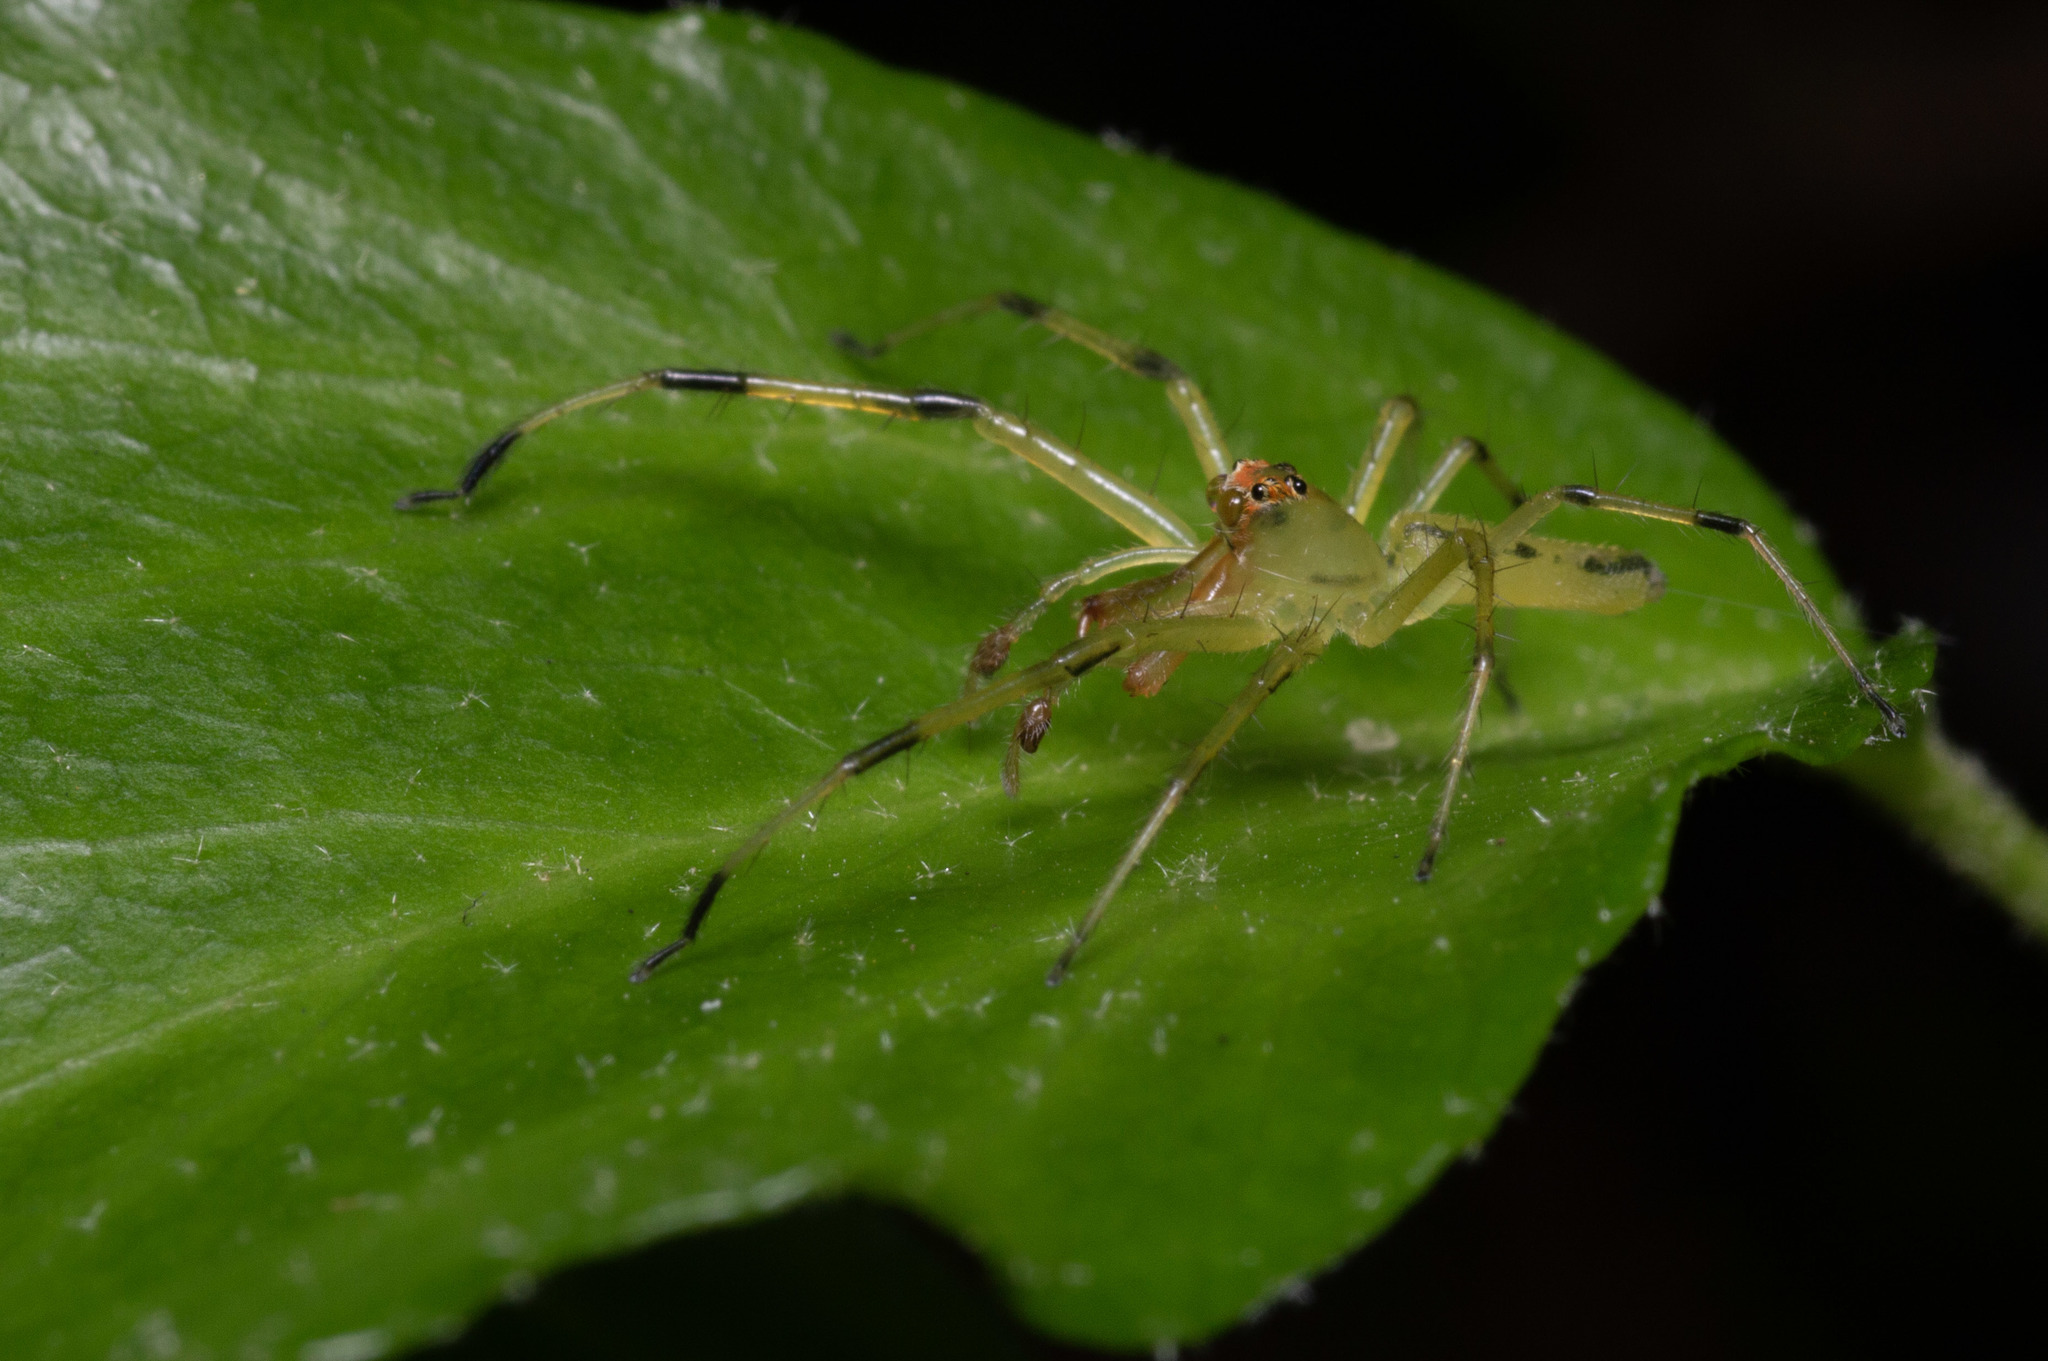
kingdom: Animalia
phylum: Arthropoda
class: Arachnida
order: Araneae
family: Salticidae
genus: Lyssomanes
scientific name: Lyssomanes viridis
